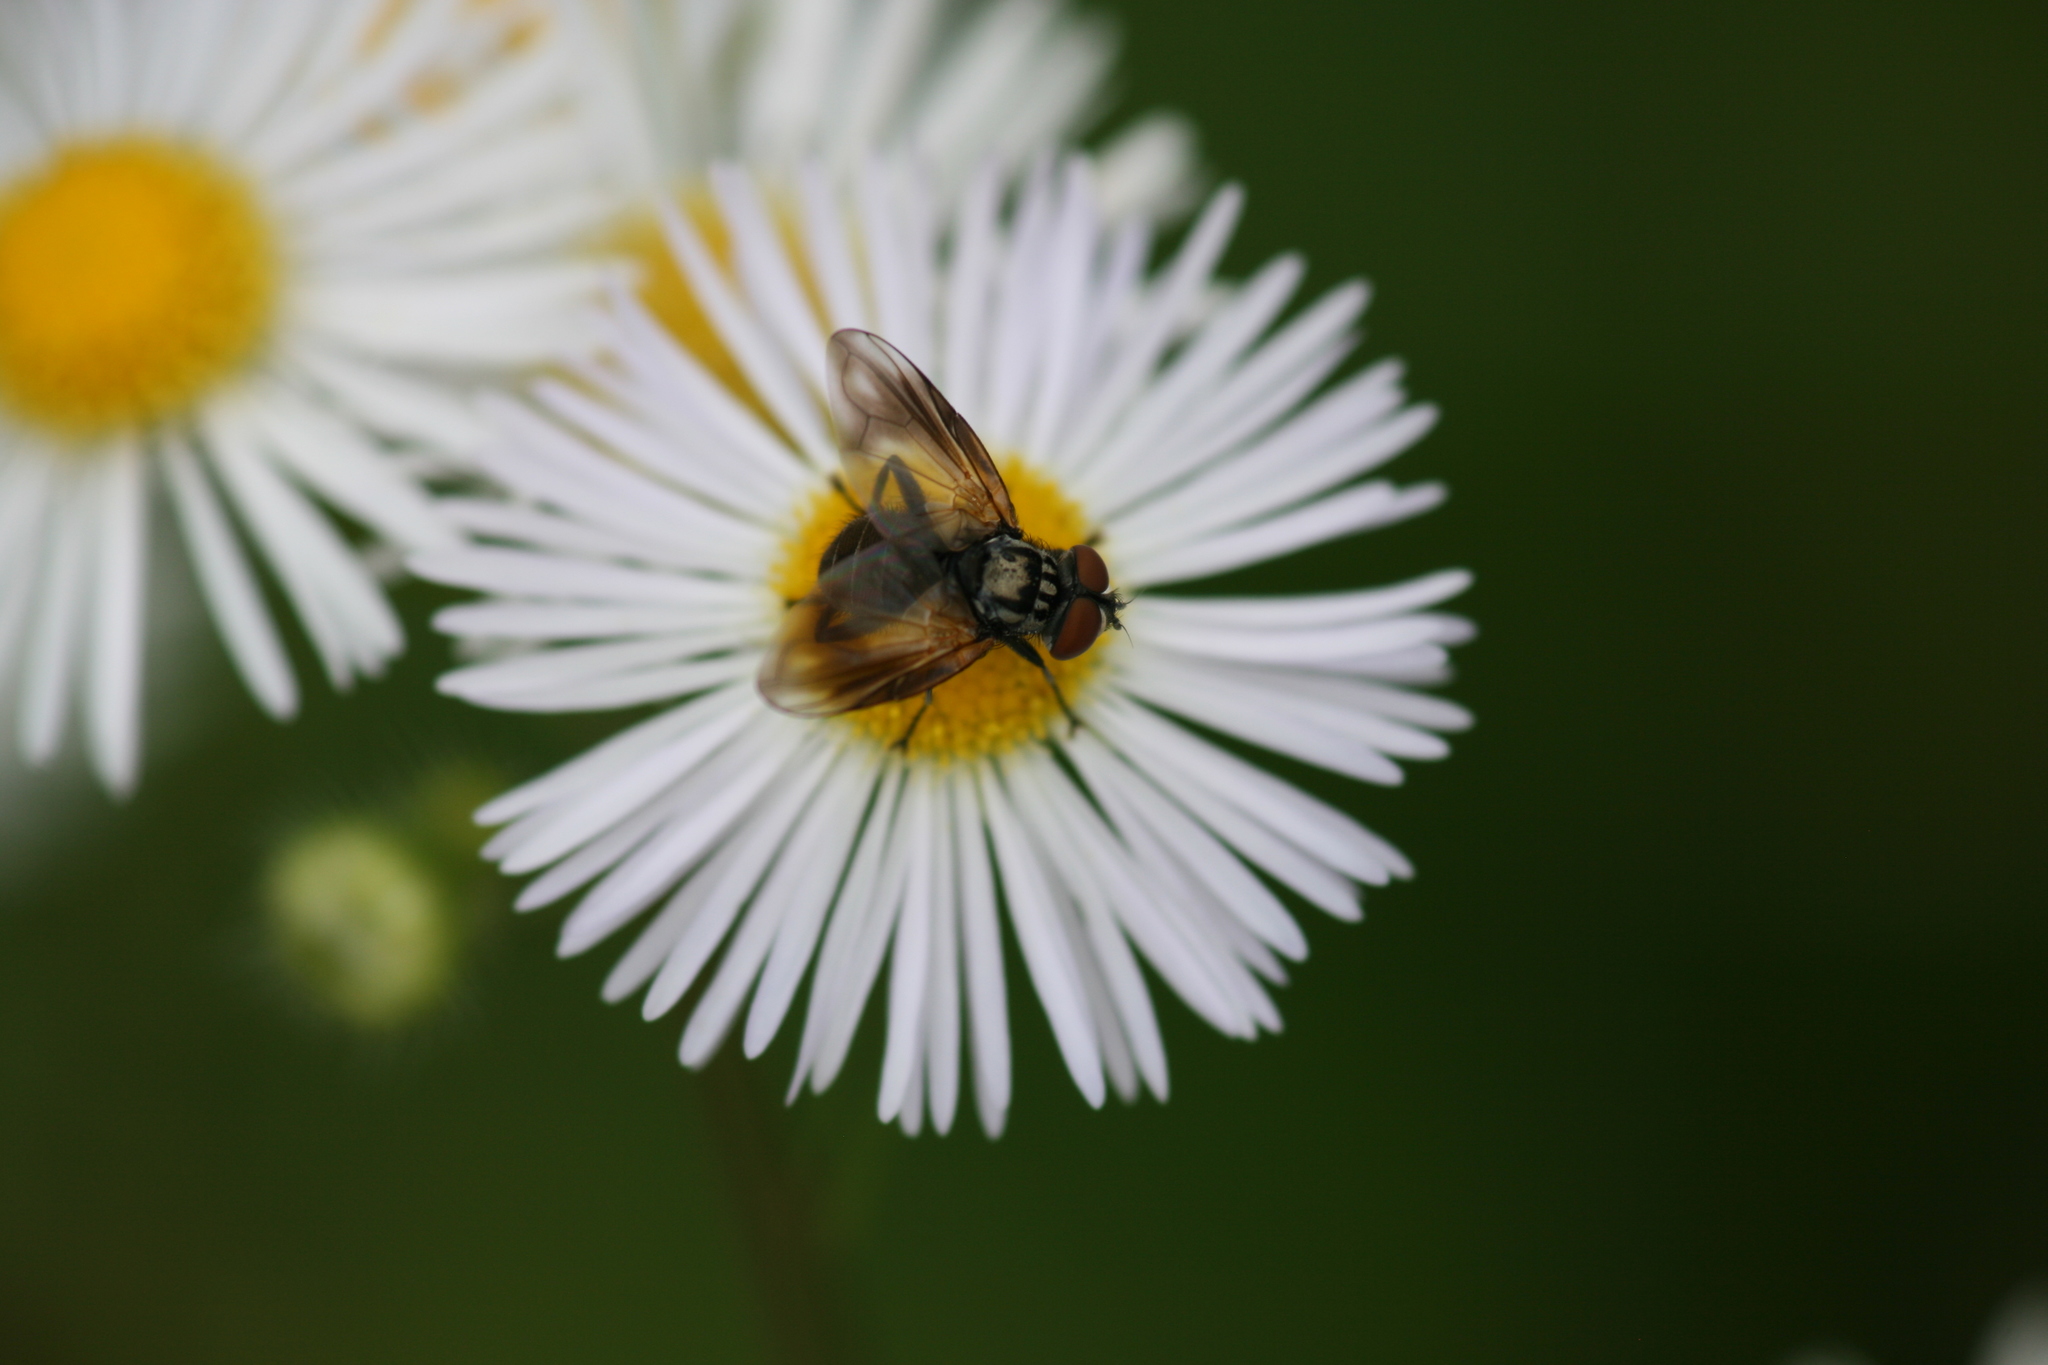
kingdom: Animalia
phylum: Arthropoda
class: Insecta
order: Diptera
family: Tachinidae
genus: Phasia
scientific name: Phasia obesa
